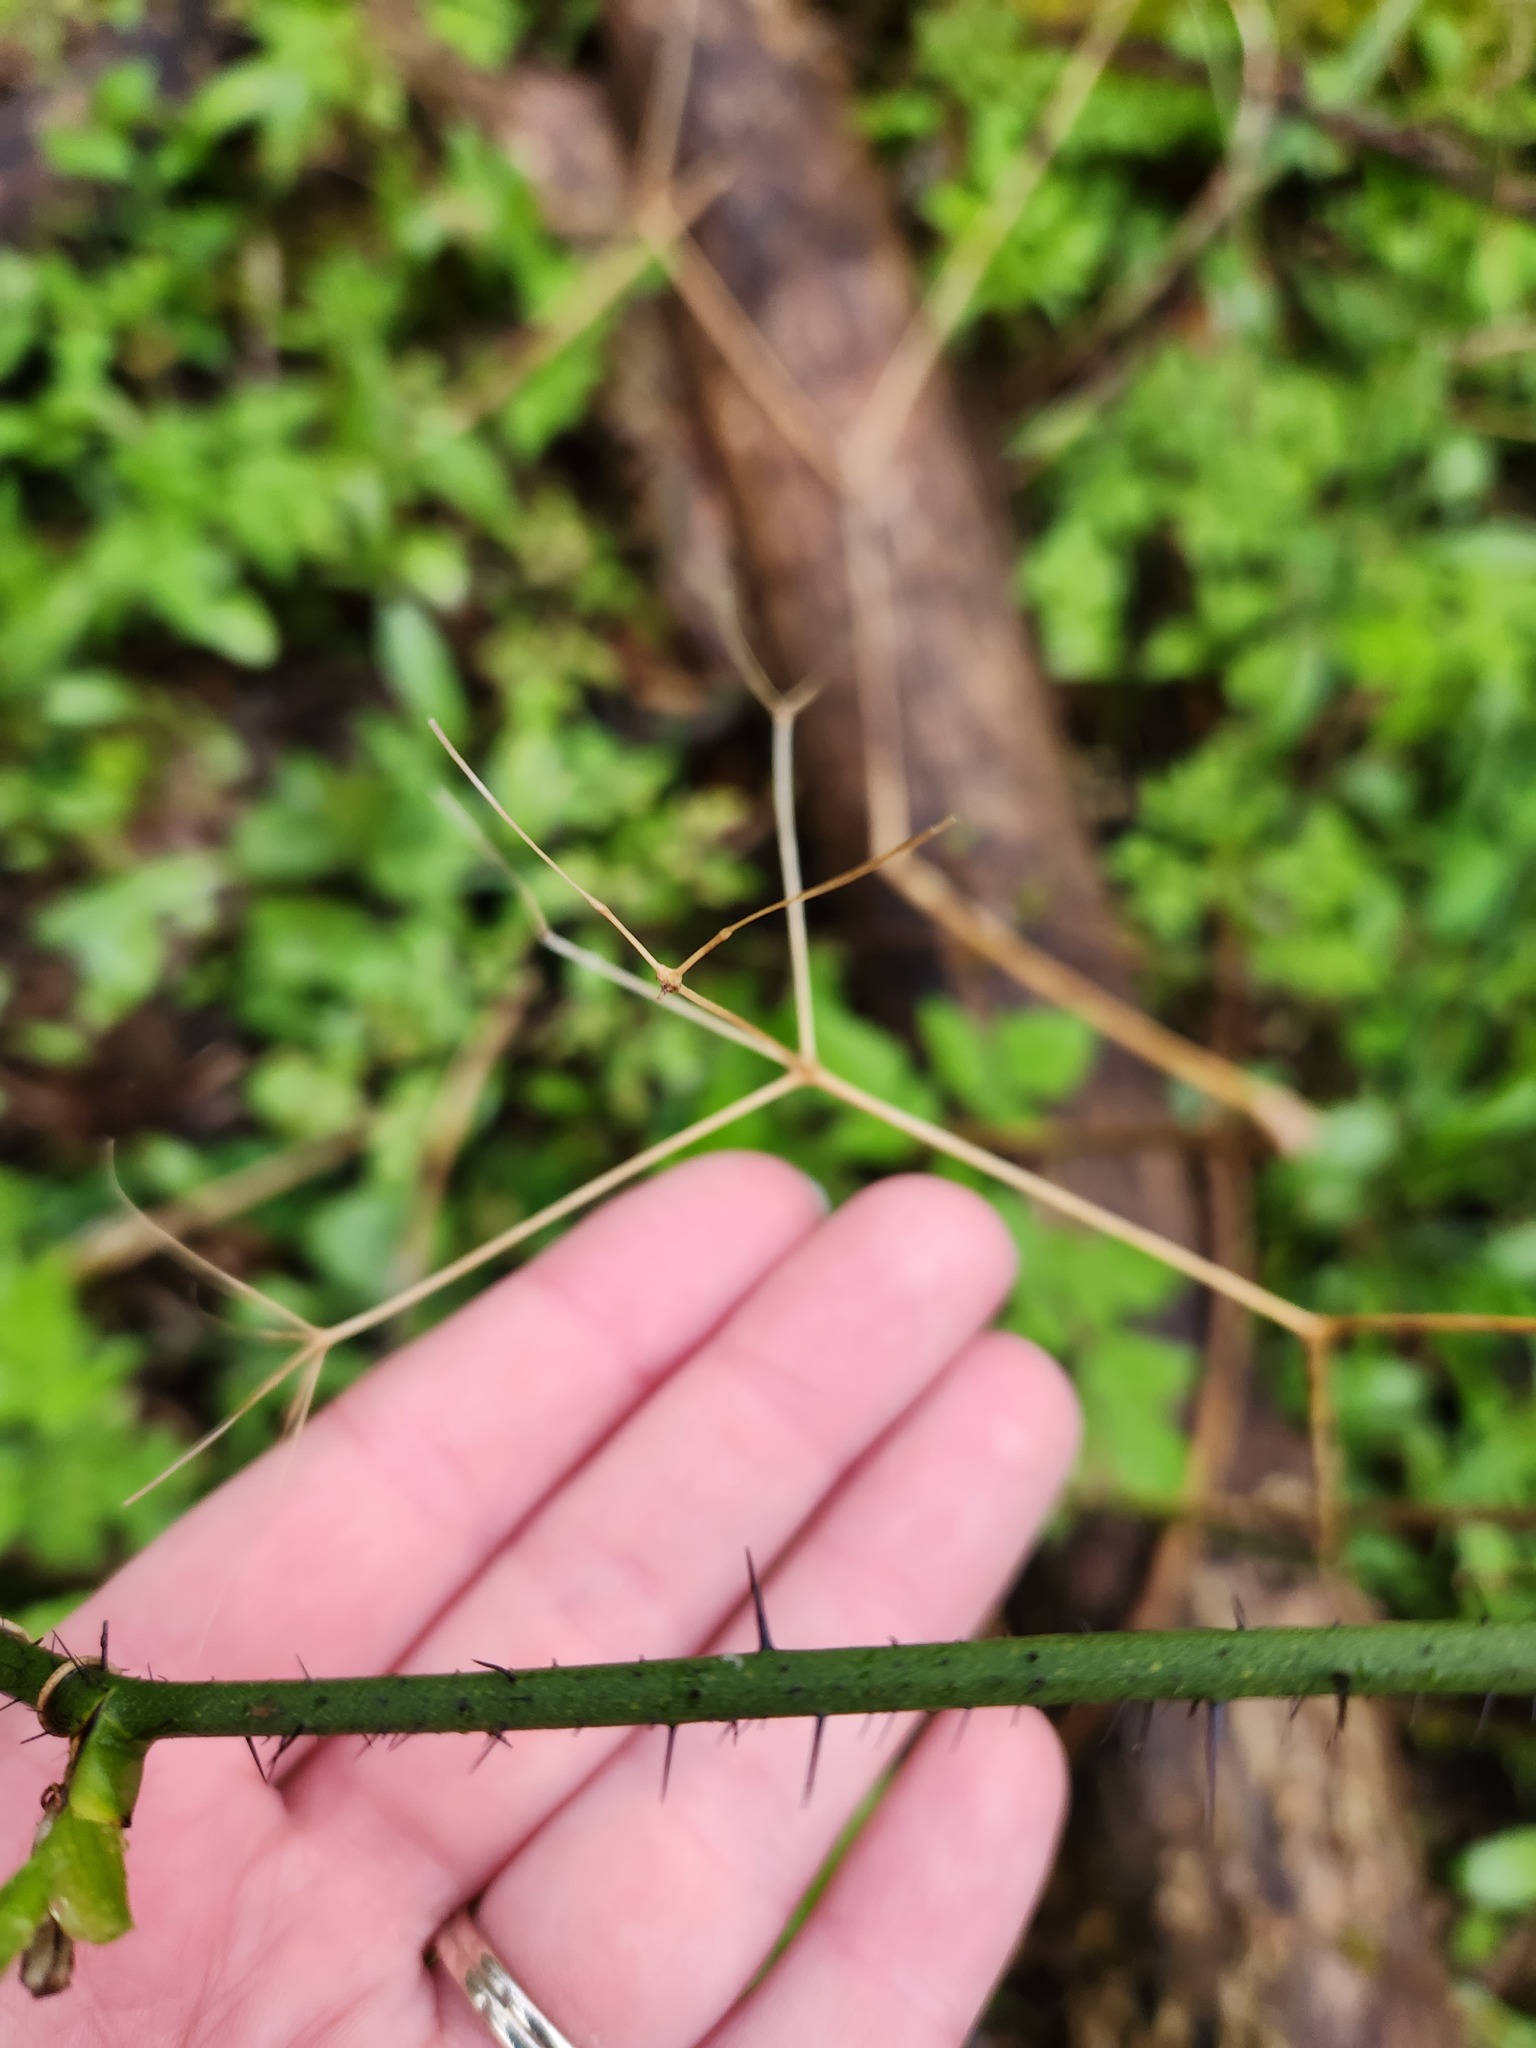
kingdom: Plantae
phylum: Tracheophyta
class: Liliopsida
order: Liliales
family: Smilacaceae
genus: Smilax
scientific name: Smilax tamnoides
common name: Hellfetter
